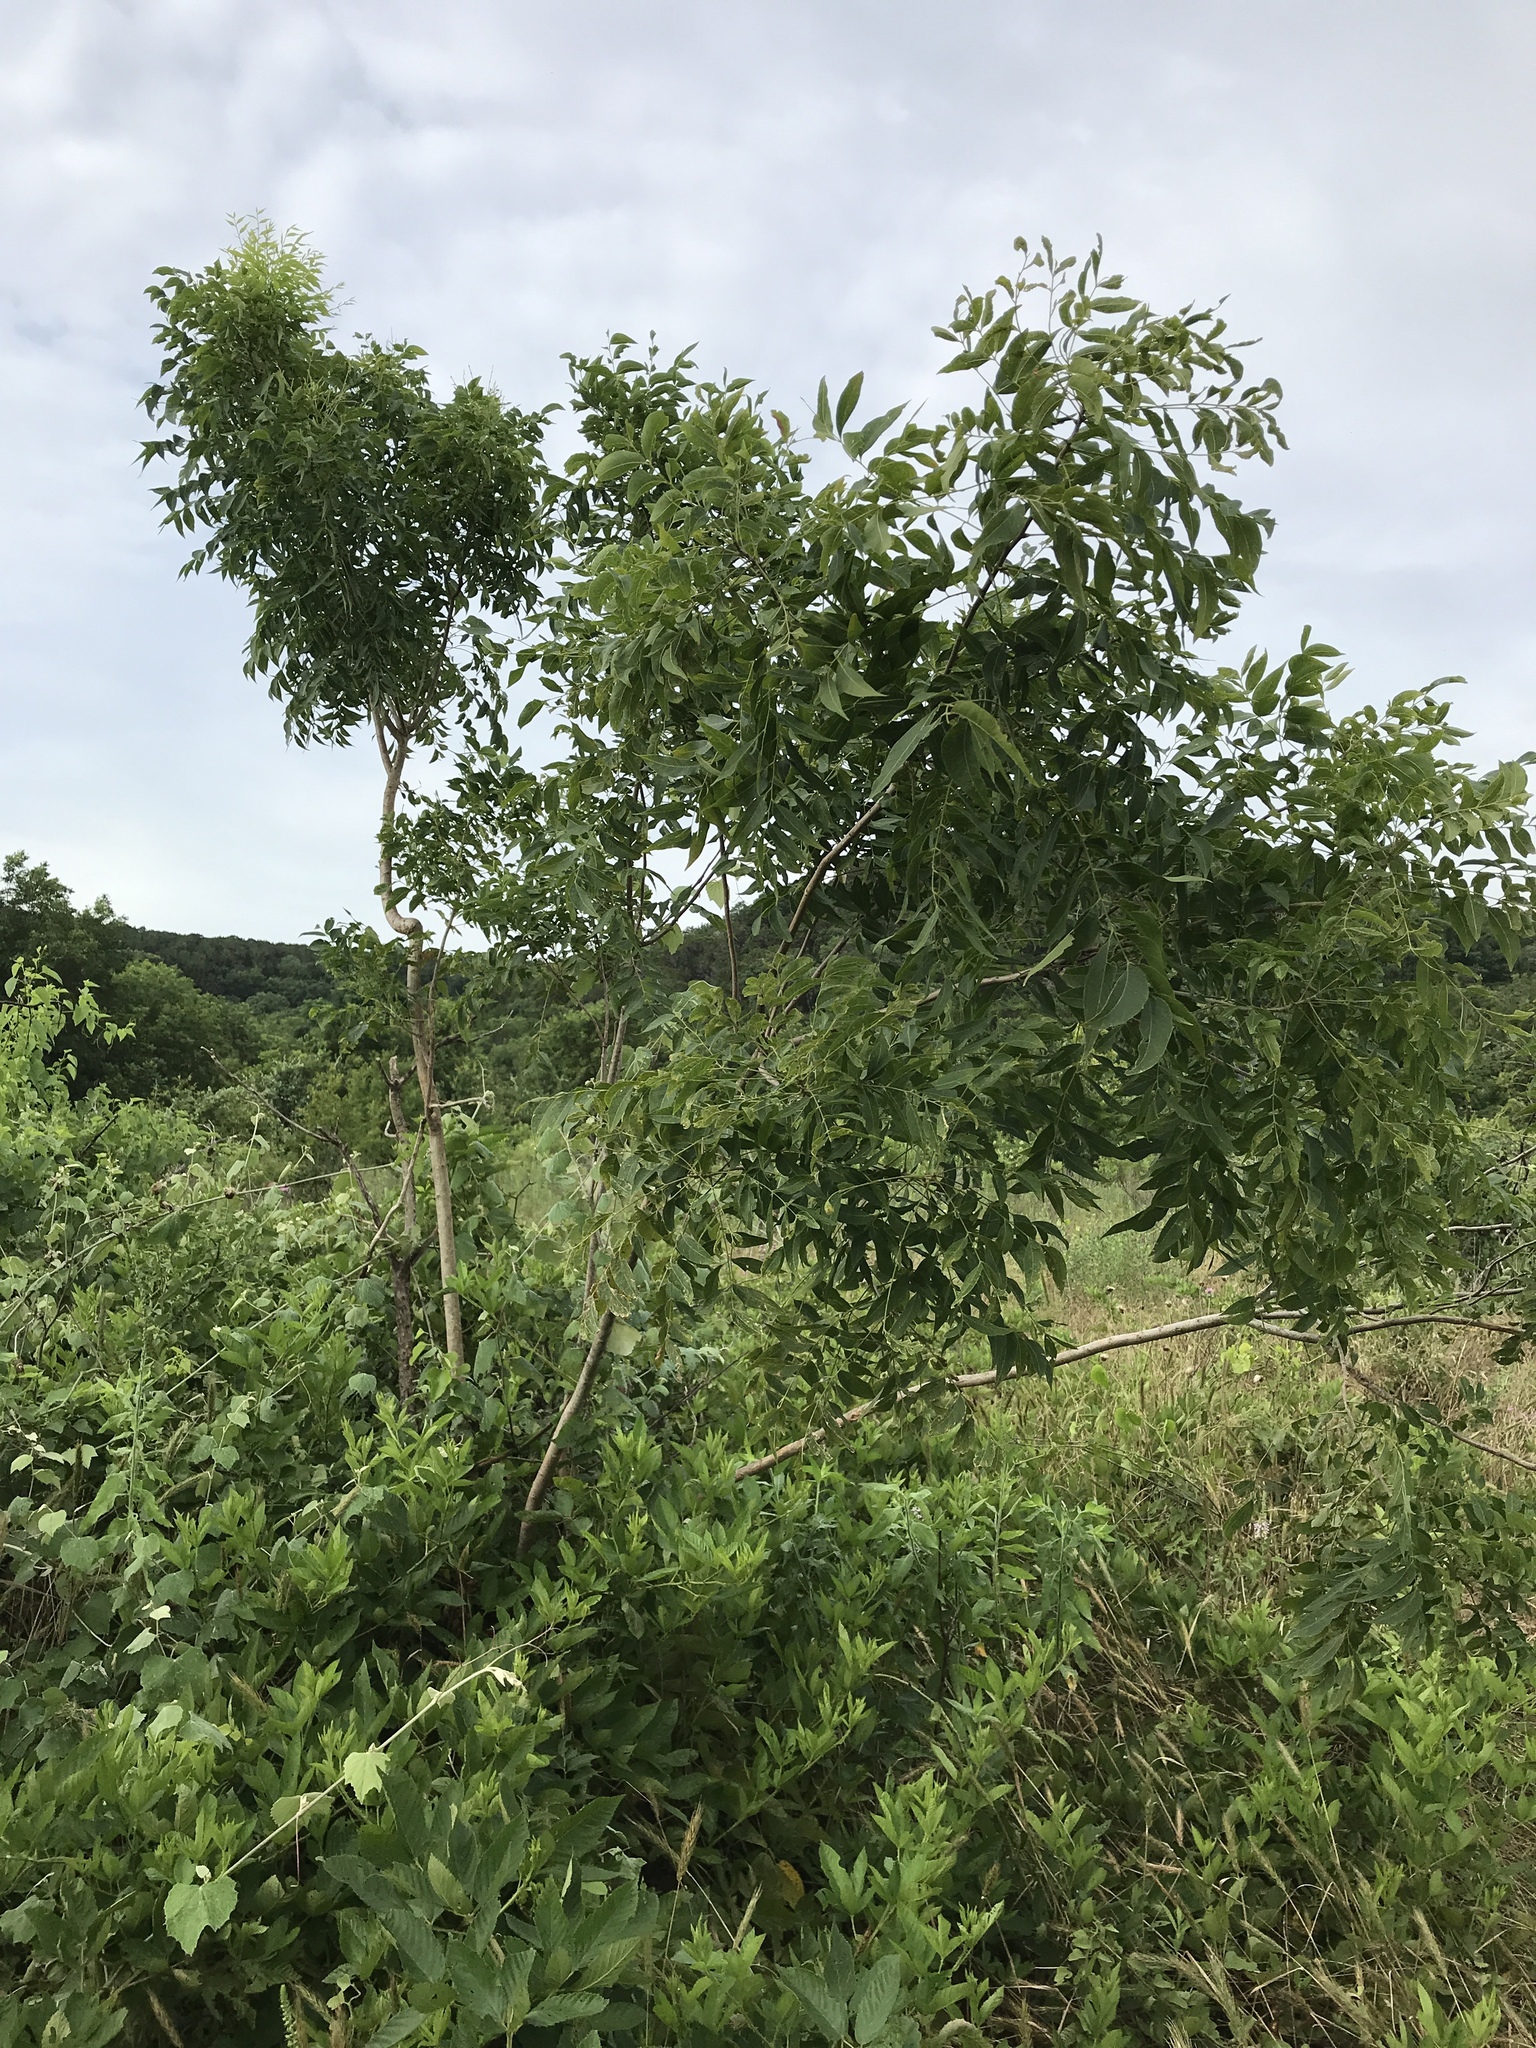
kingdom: Plantae
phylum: Tracheophyta
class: Magnoliopsida
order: Sapindales
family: Sapindaceae
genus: Sapindus
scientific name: Sapindus drummondii
